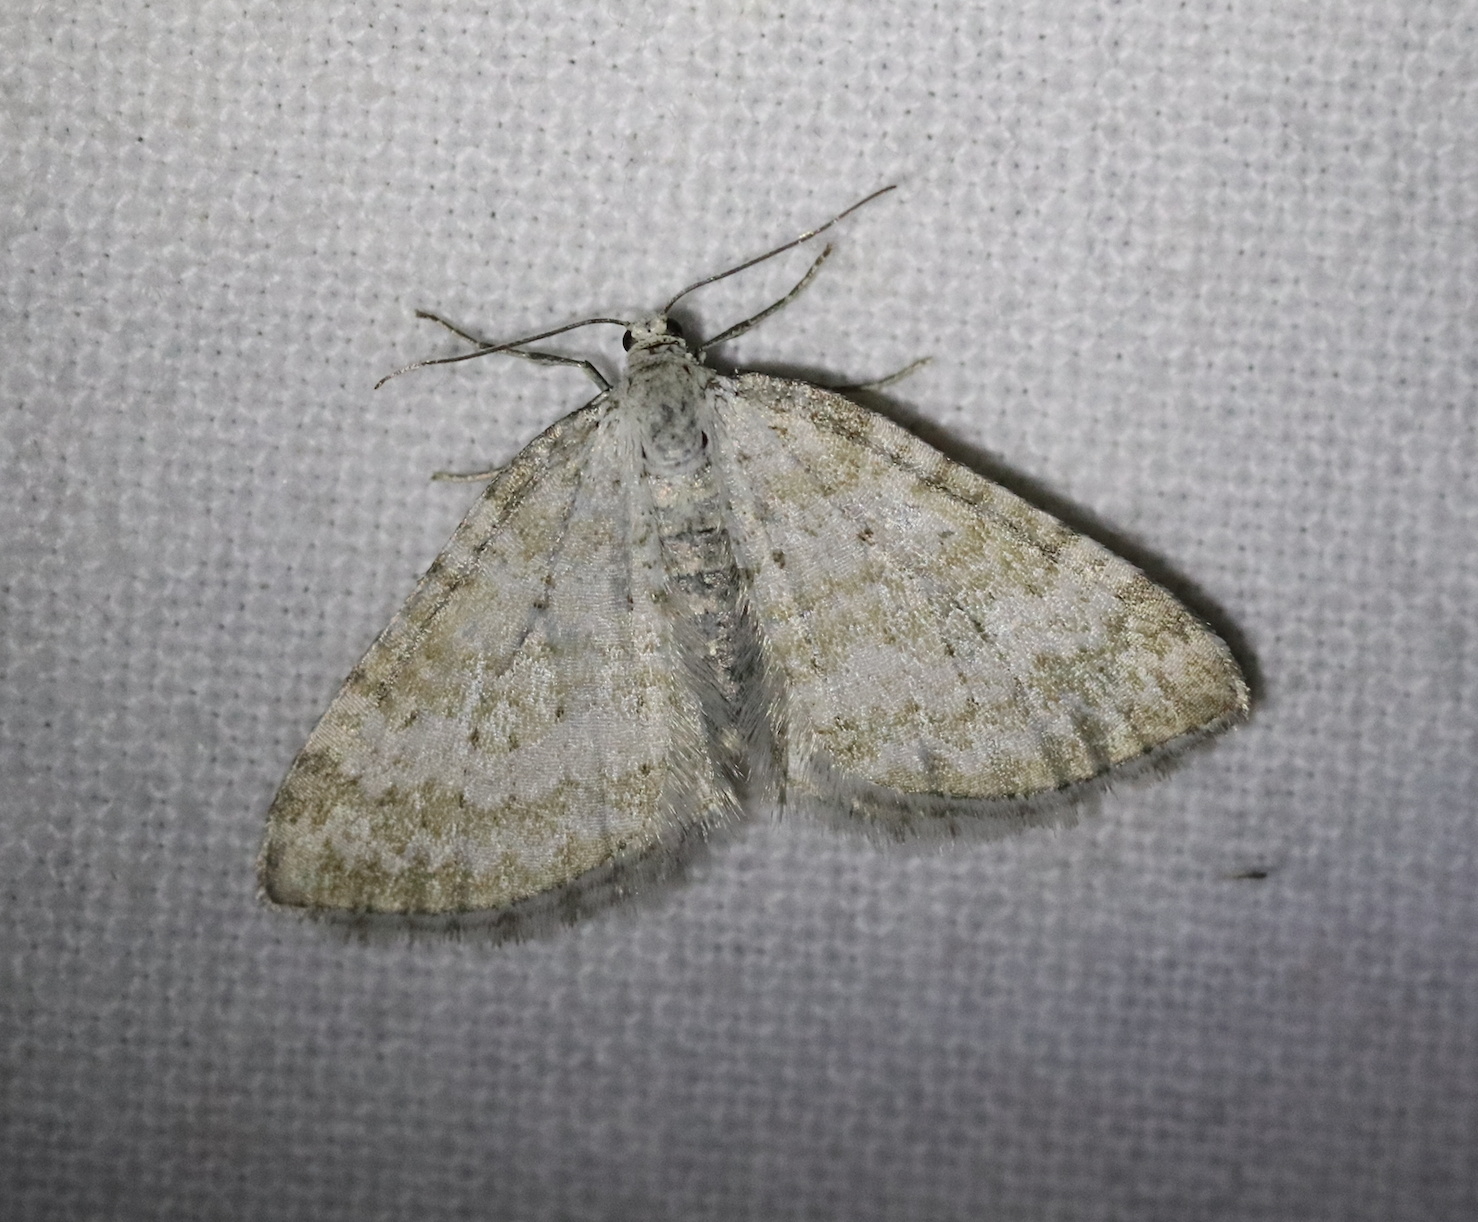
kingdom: Animalia
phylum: Arthropoda
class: Insecta
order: Lepidoptera
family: Geometridae
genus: Perizoma
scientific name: Perizoma albulata
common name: Grass rivulet
